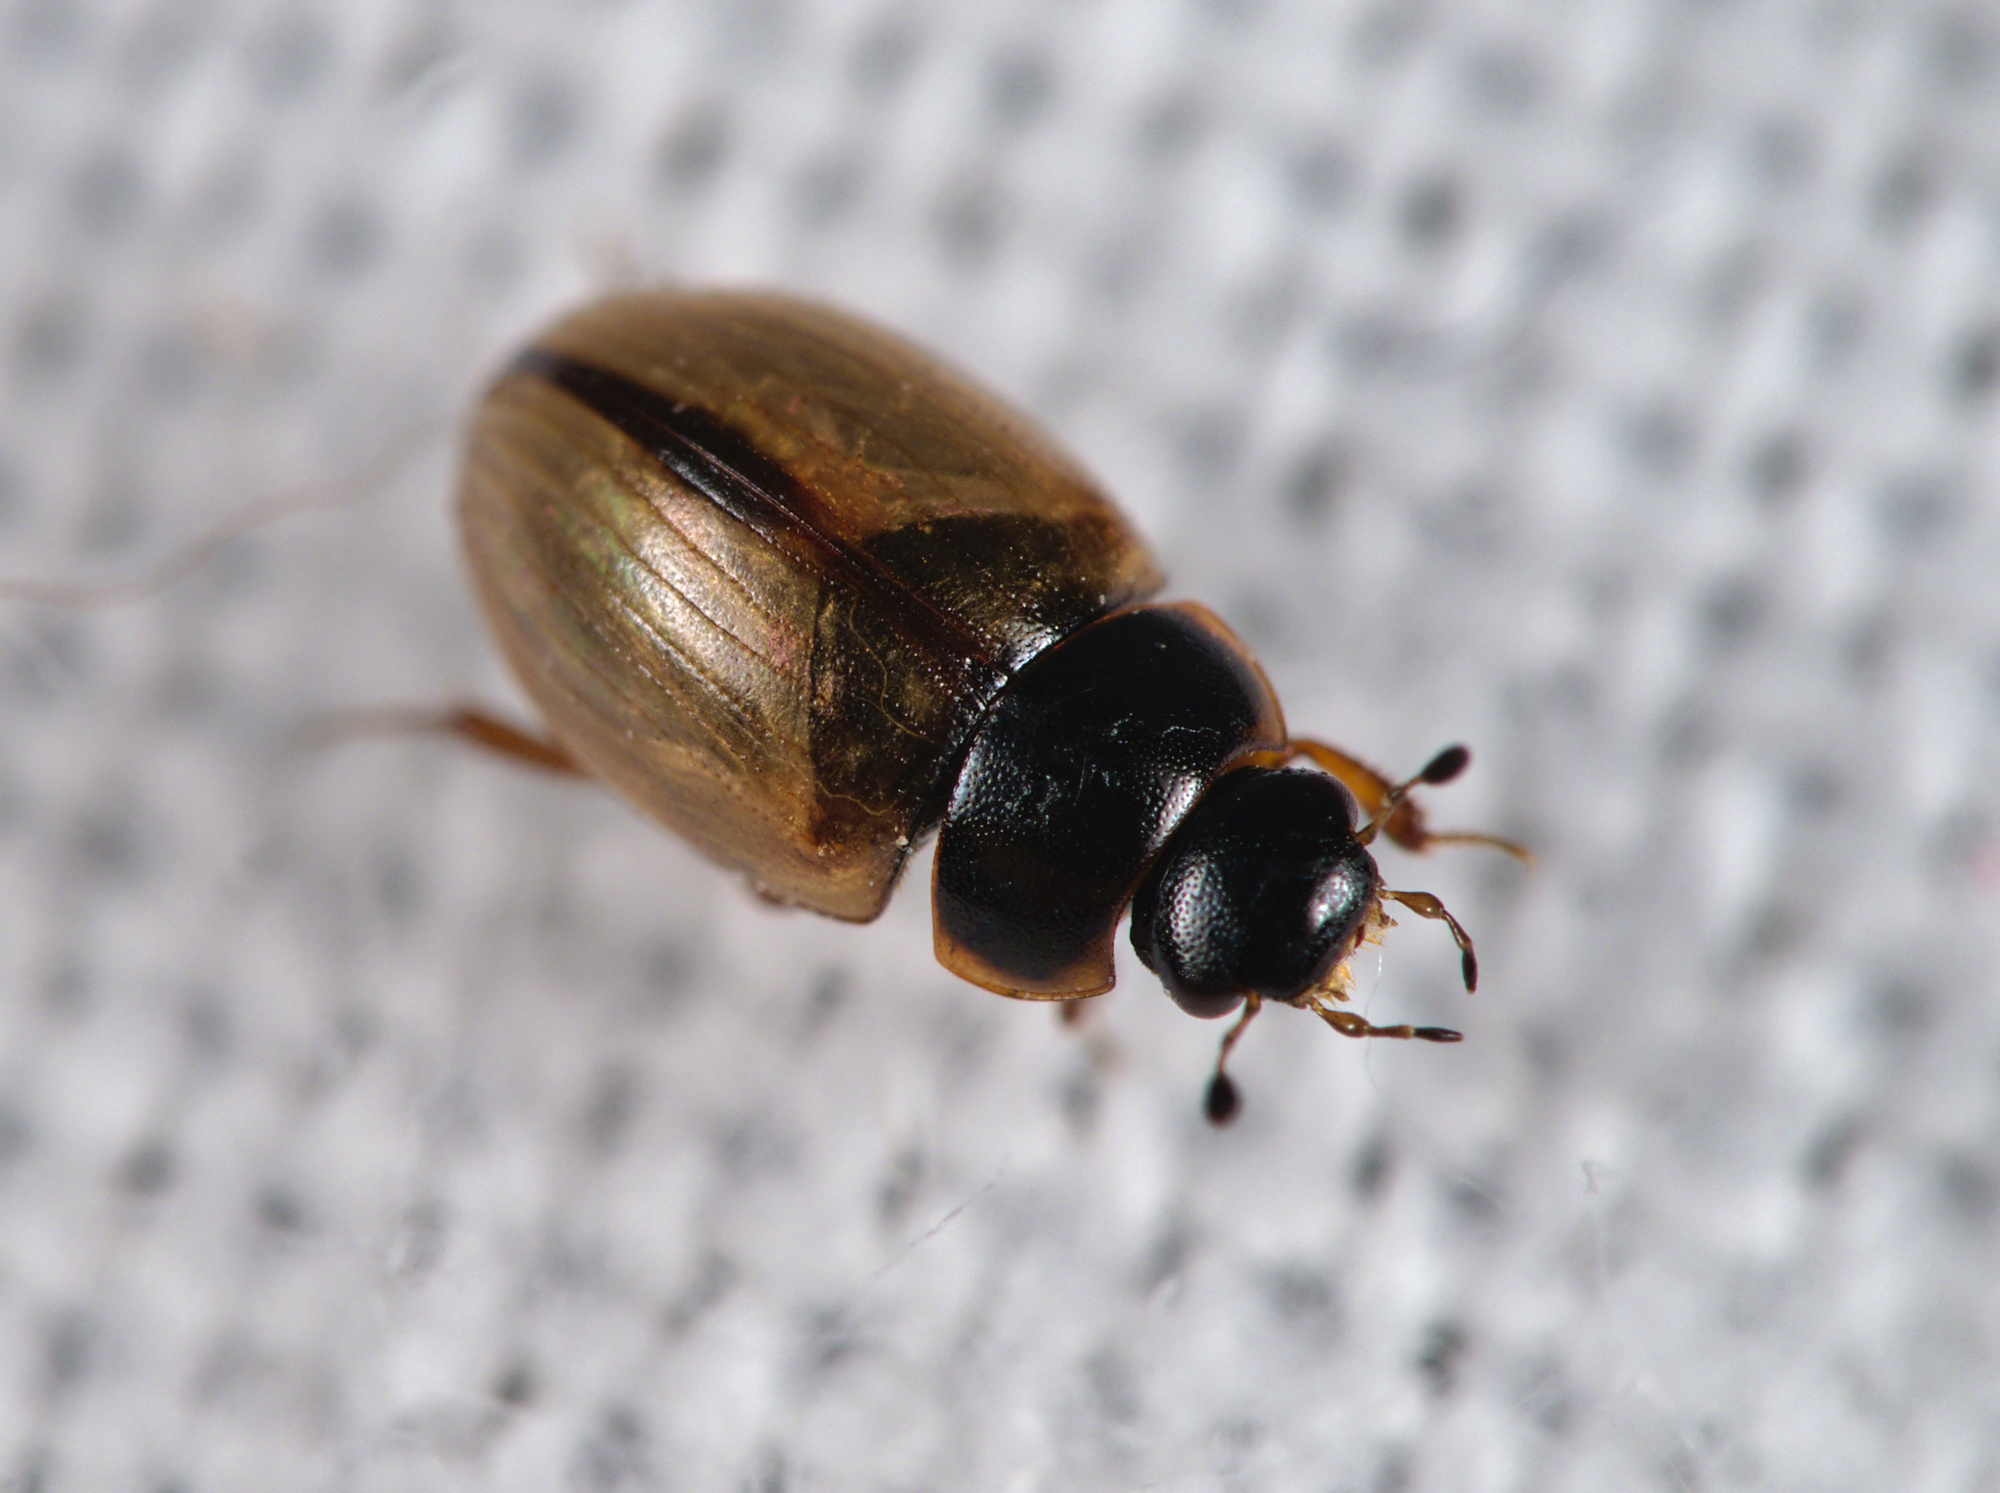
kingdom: Animalia
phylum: Arthropoda
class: Insecta
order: Coleoptera
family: Hydrophilidae
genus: Cercyon
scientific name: Cercyon unipunctatus
